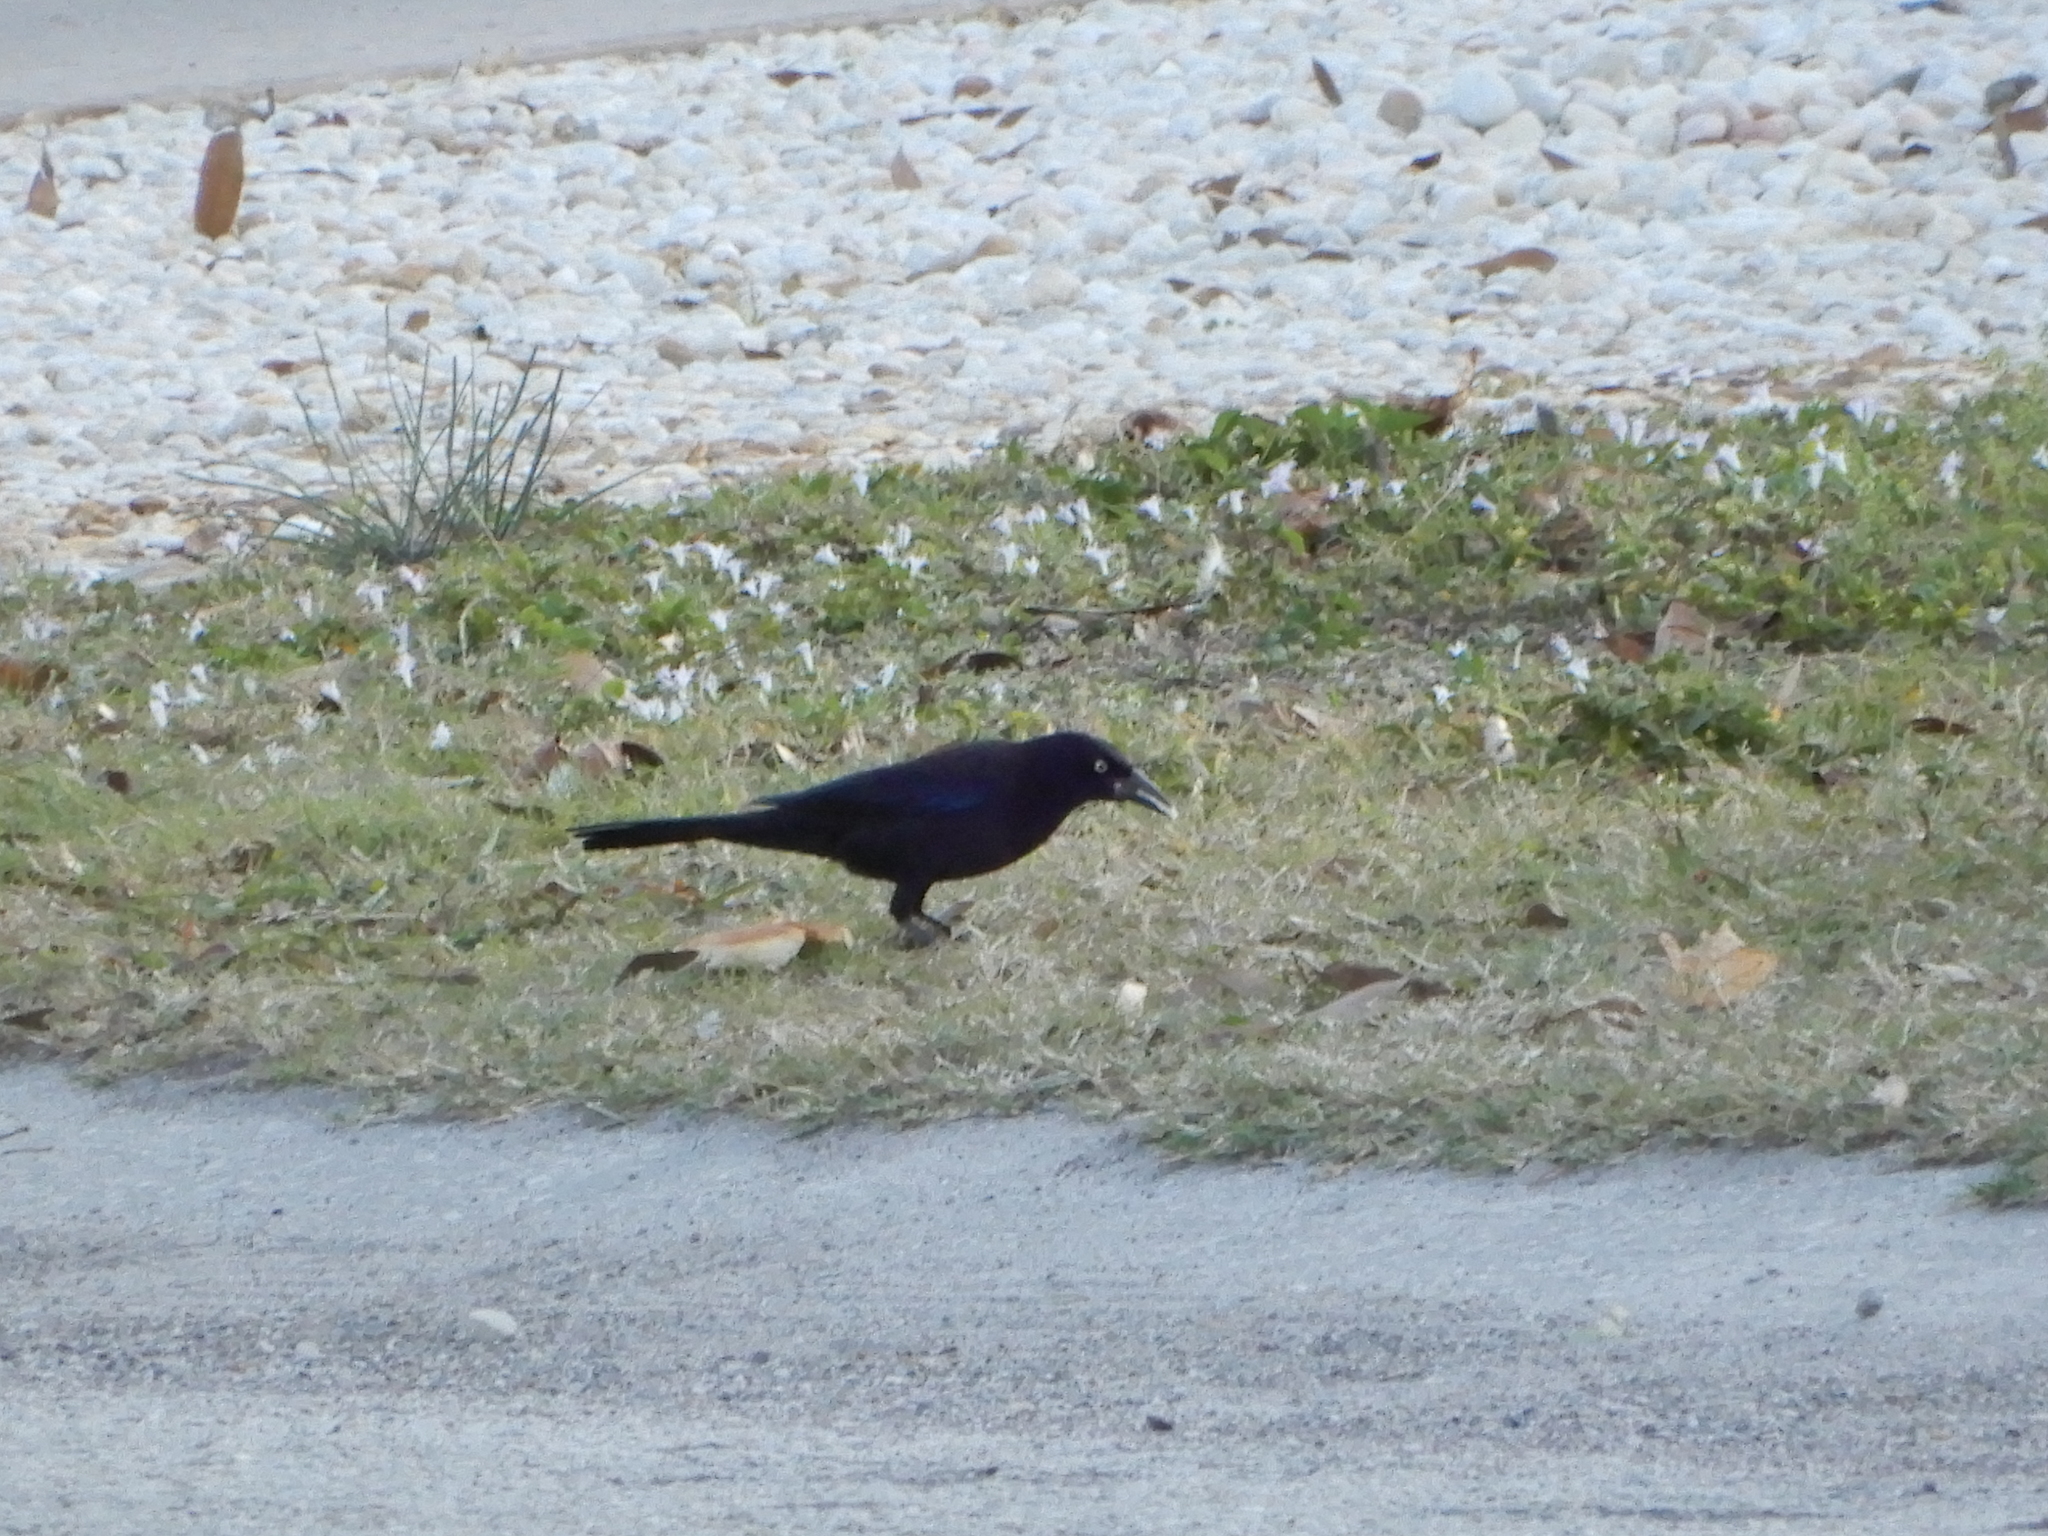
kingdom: Animalia
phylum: Chordata
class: Aves
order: Passeriformes
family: Icteridae
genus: Quiscalus
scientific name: Quiscalus quiscula
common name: Common grackle
